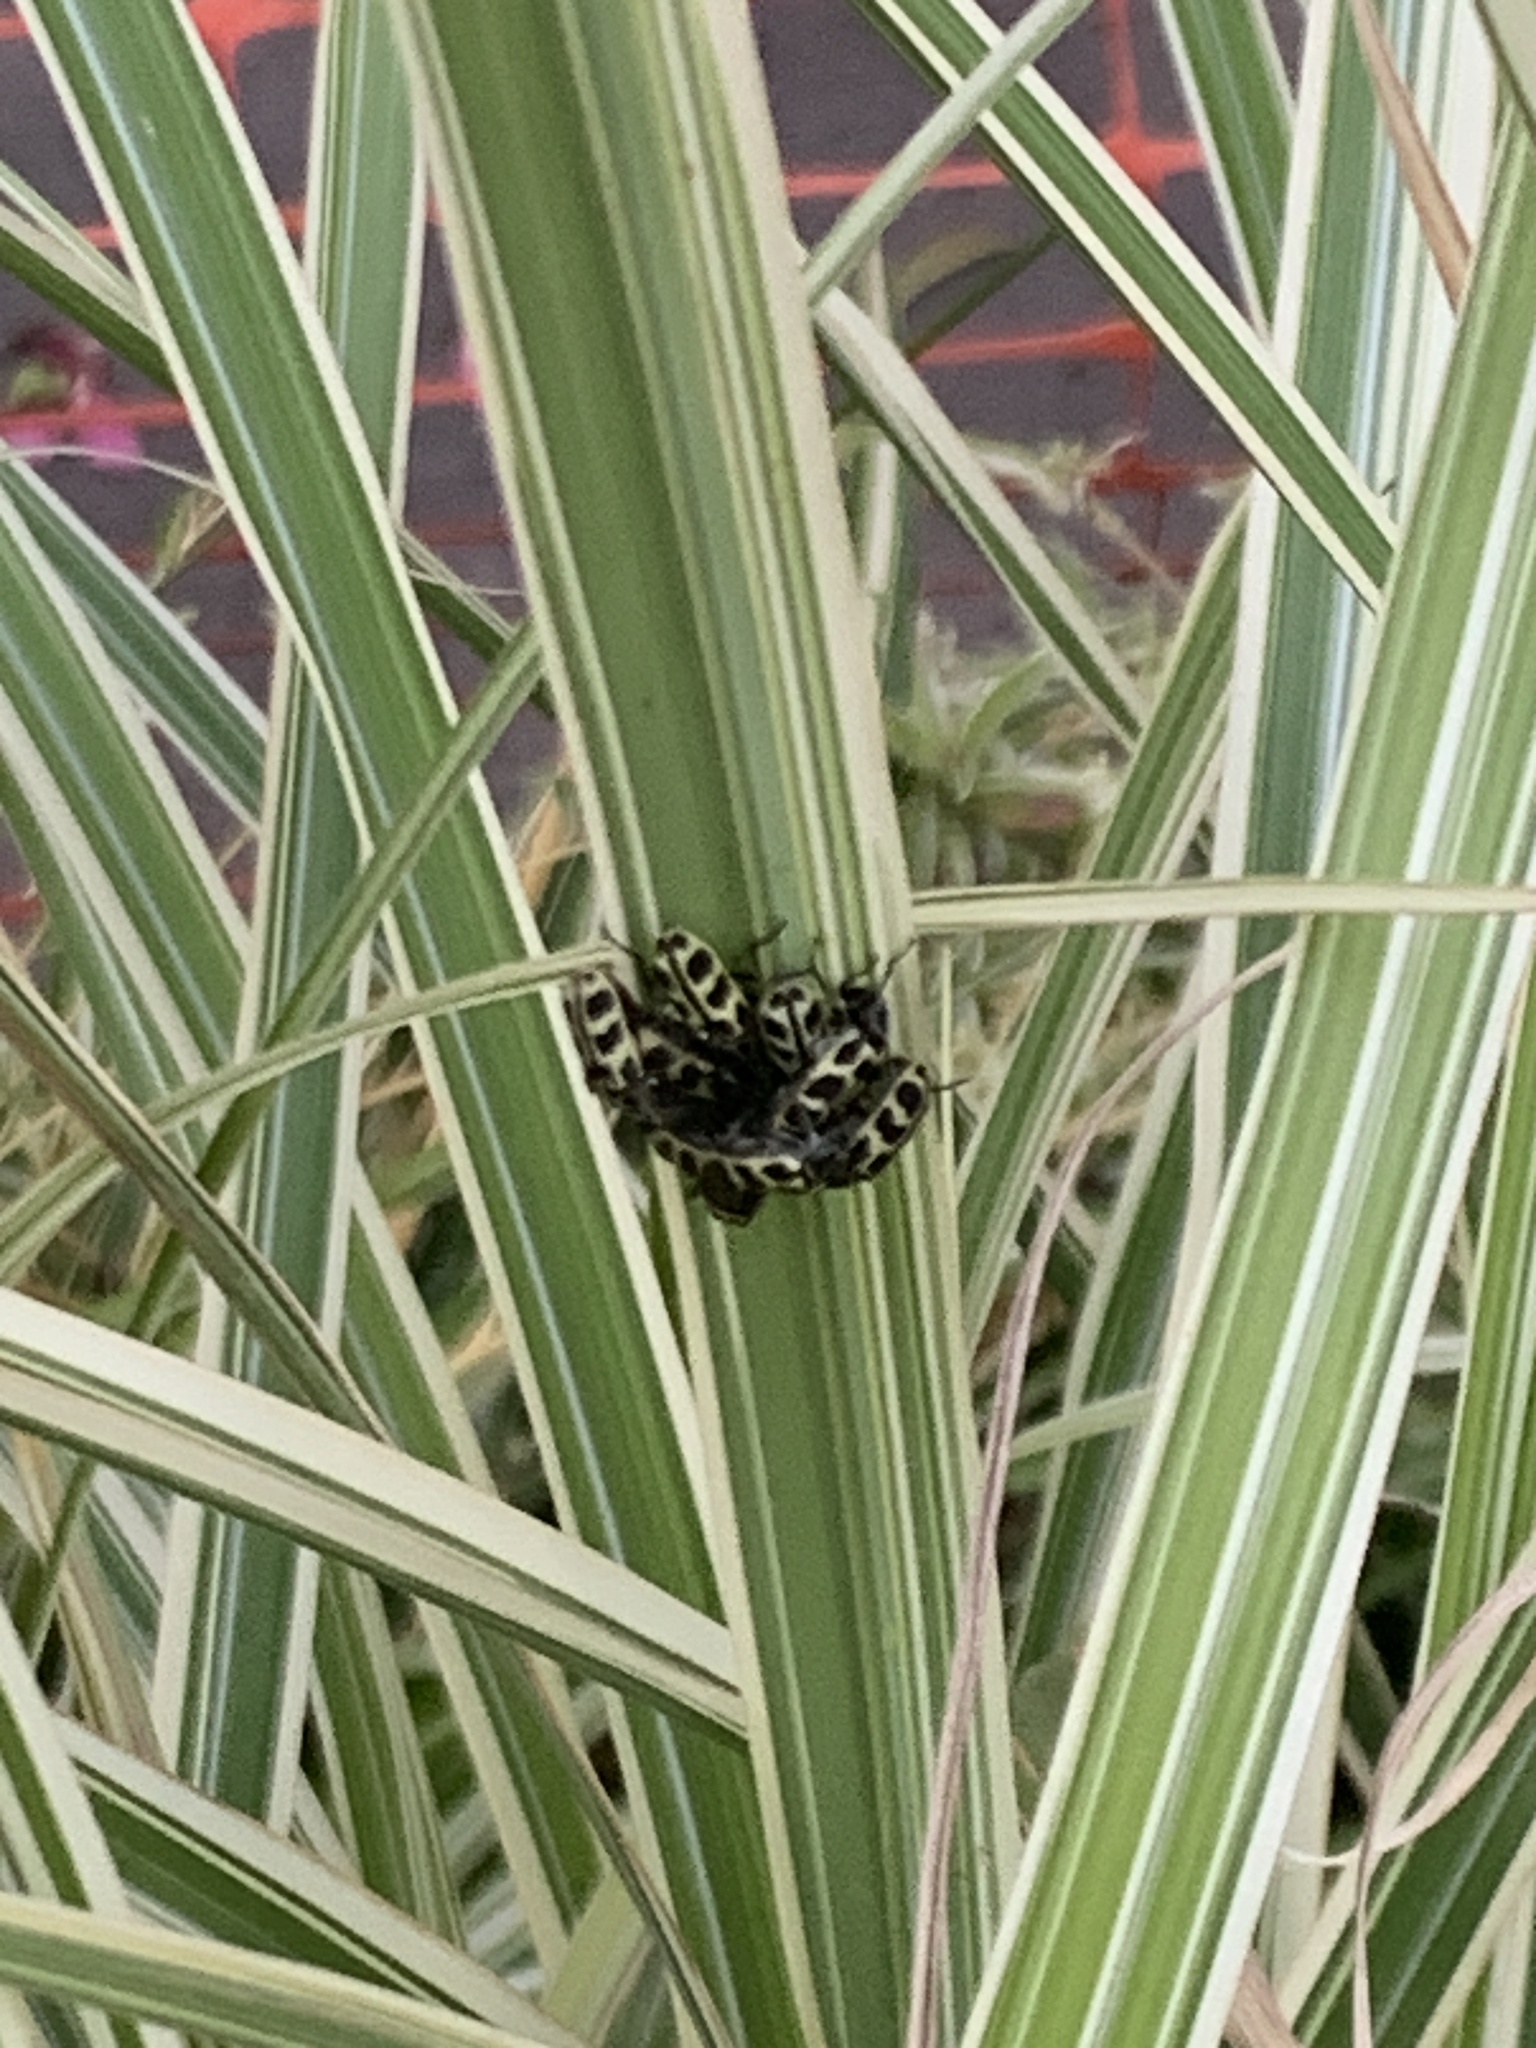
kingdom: Animalia
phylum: Arthropoda
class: Insecta
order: Coleoptera
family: Melyridae
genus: Astylus
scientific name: Astylus atromaculatus
